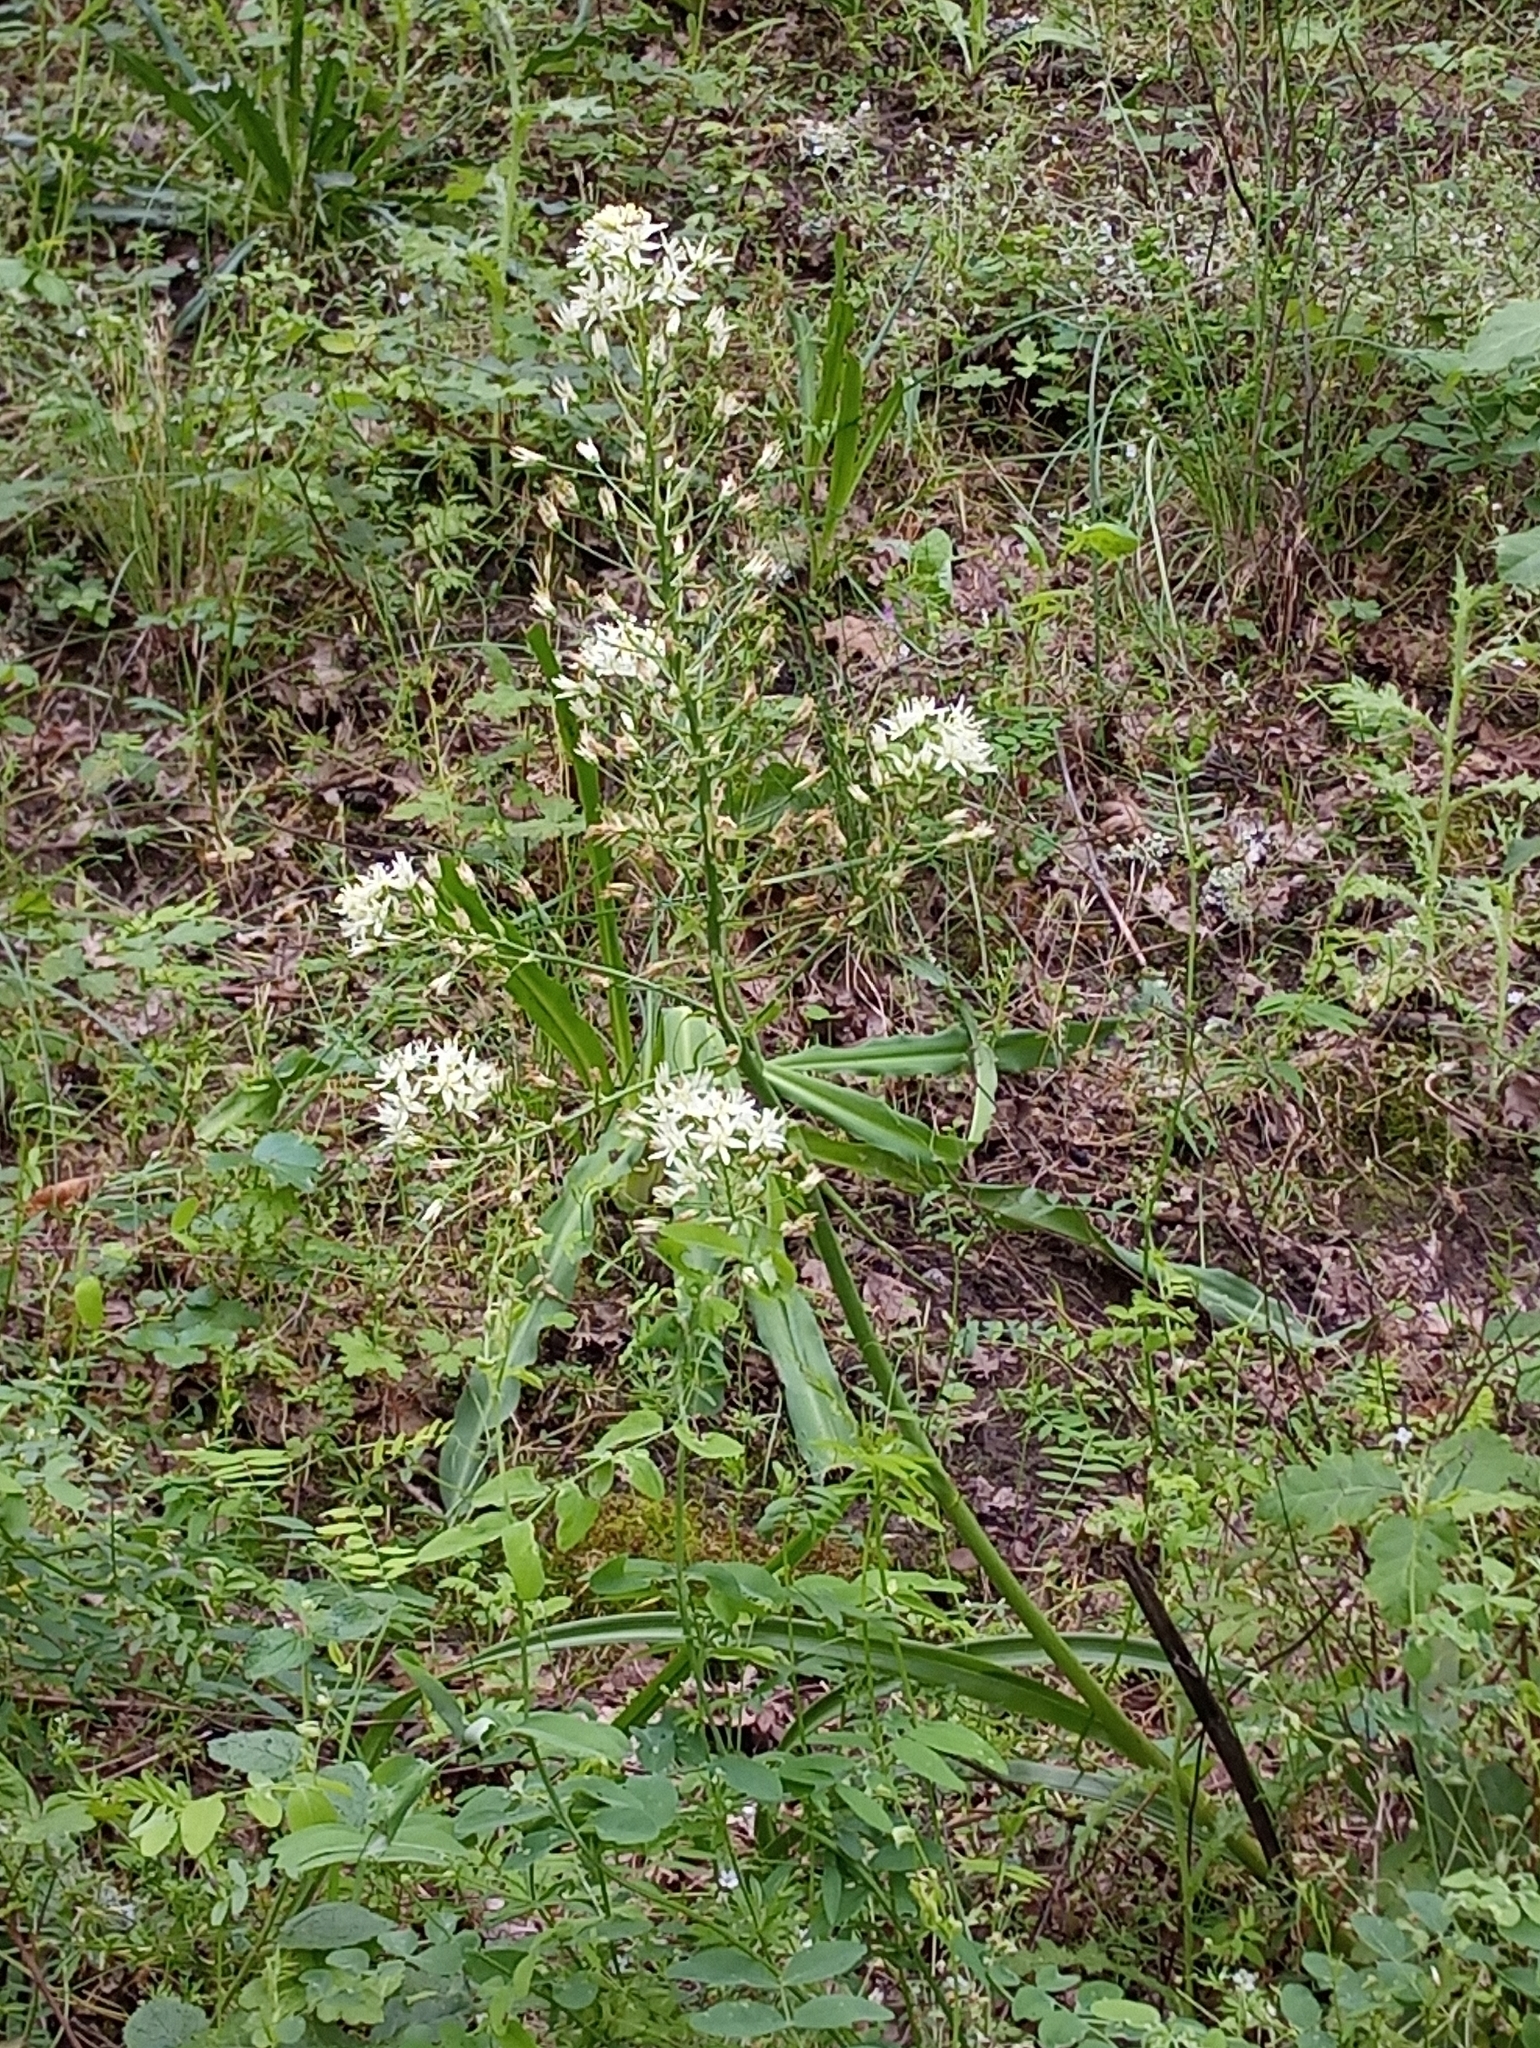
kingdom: Plantae
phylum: Tracheophyta
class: Liliopsida
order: Liliales
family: Melanthiaceae
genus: Toxicoscordion
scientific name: Toxicoscordion fremontii
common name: Fremont's death camas
